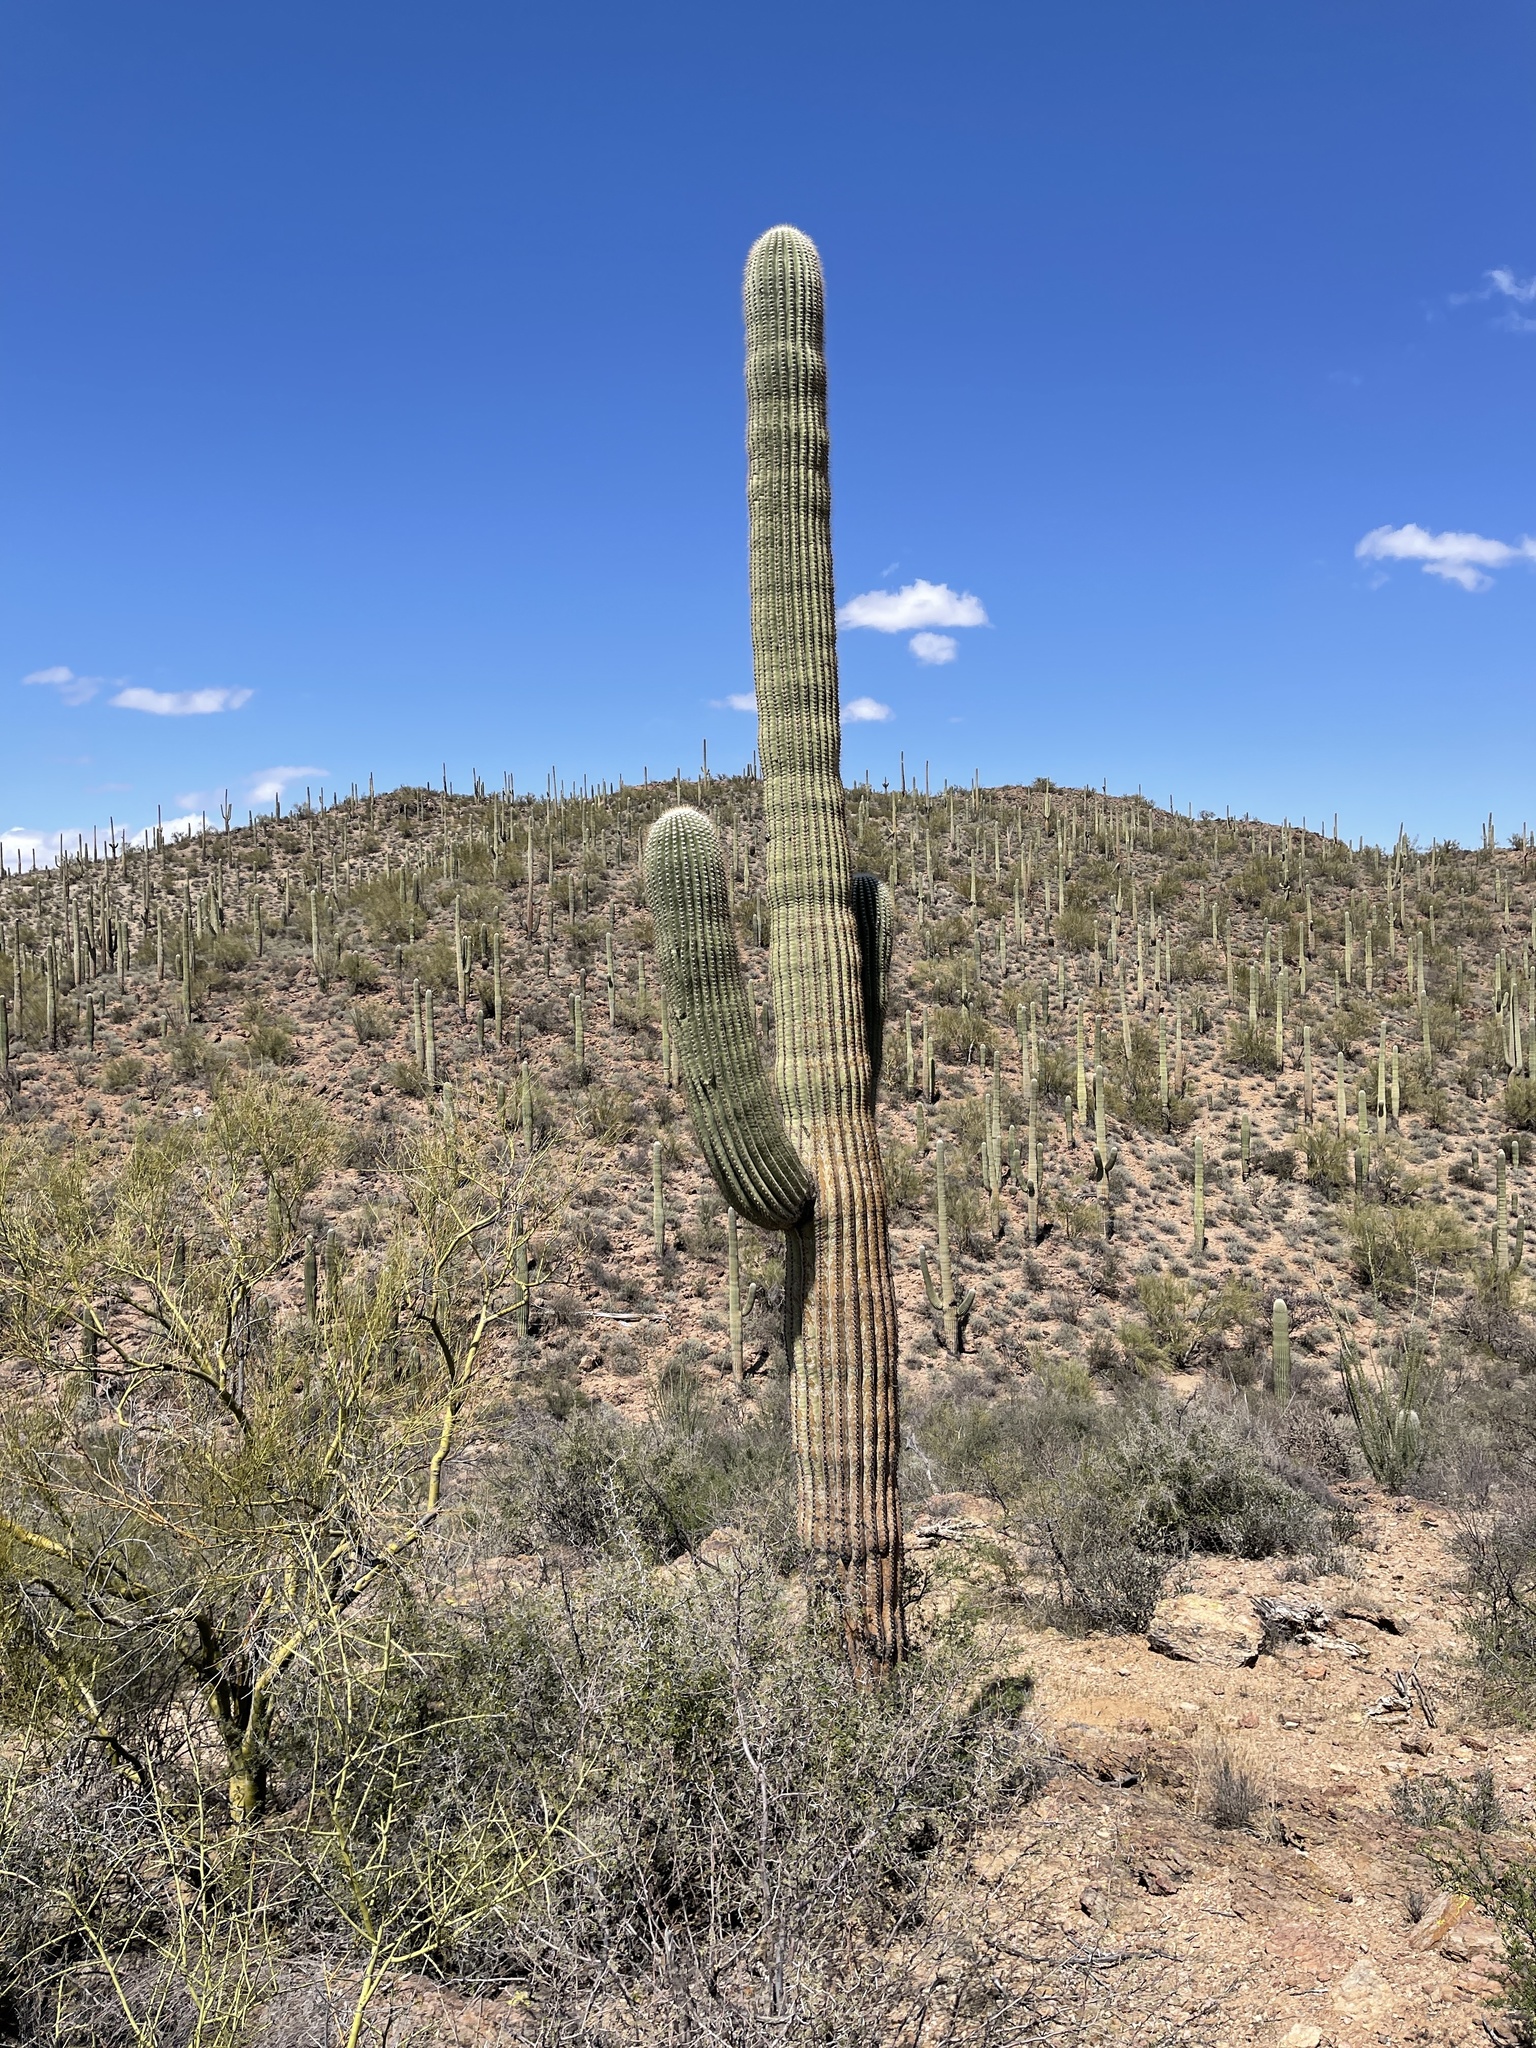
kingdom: Plantae
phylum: Tracheophyta
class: Magnoliopsida
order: Caryophyllales
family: Cactaceae
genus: Carnegiea
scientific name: Carnegiea gigantea
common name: Saguaro
